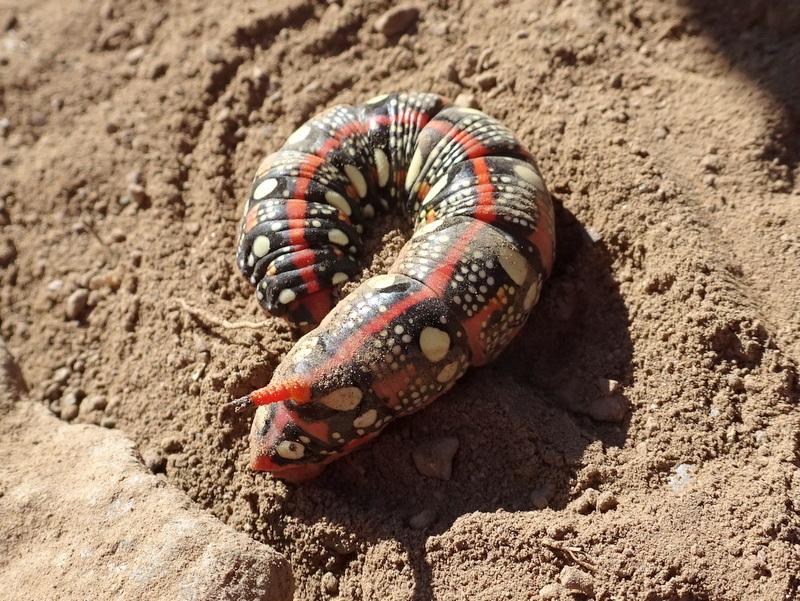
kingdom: Animalia
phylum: Arthropoda
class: Insecta
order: Lepidoptera
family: Sphingidae
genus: Hyles
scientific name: Hyles euphorbiae
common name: Spurge hawk-moth
